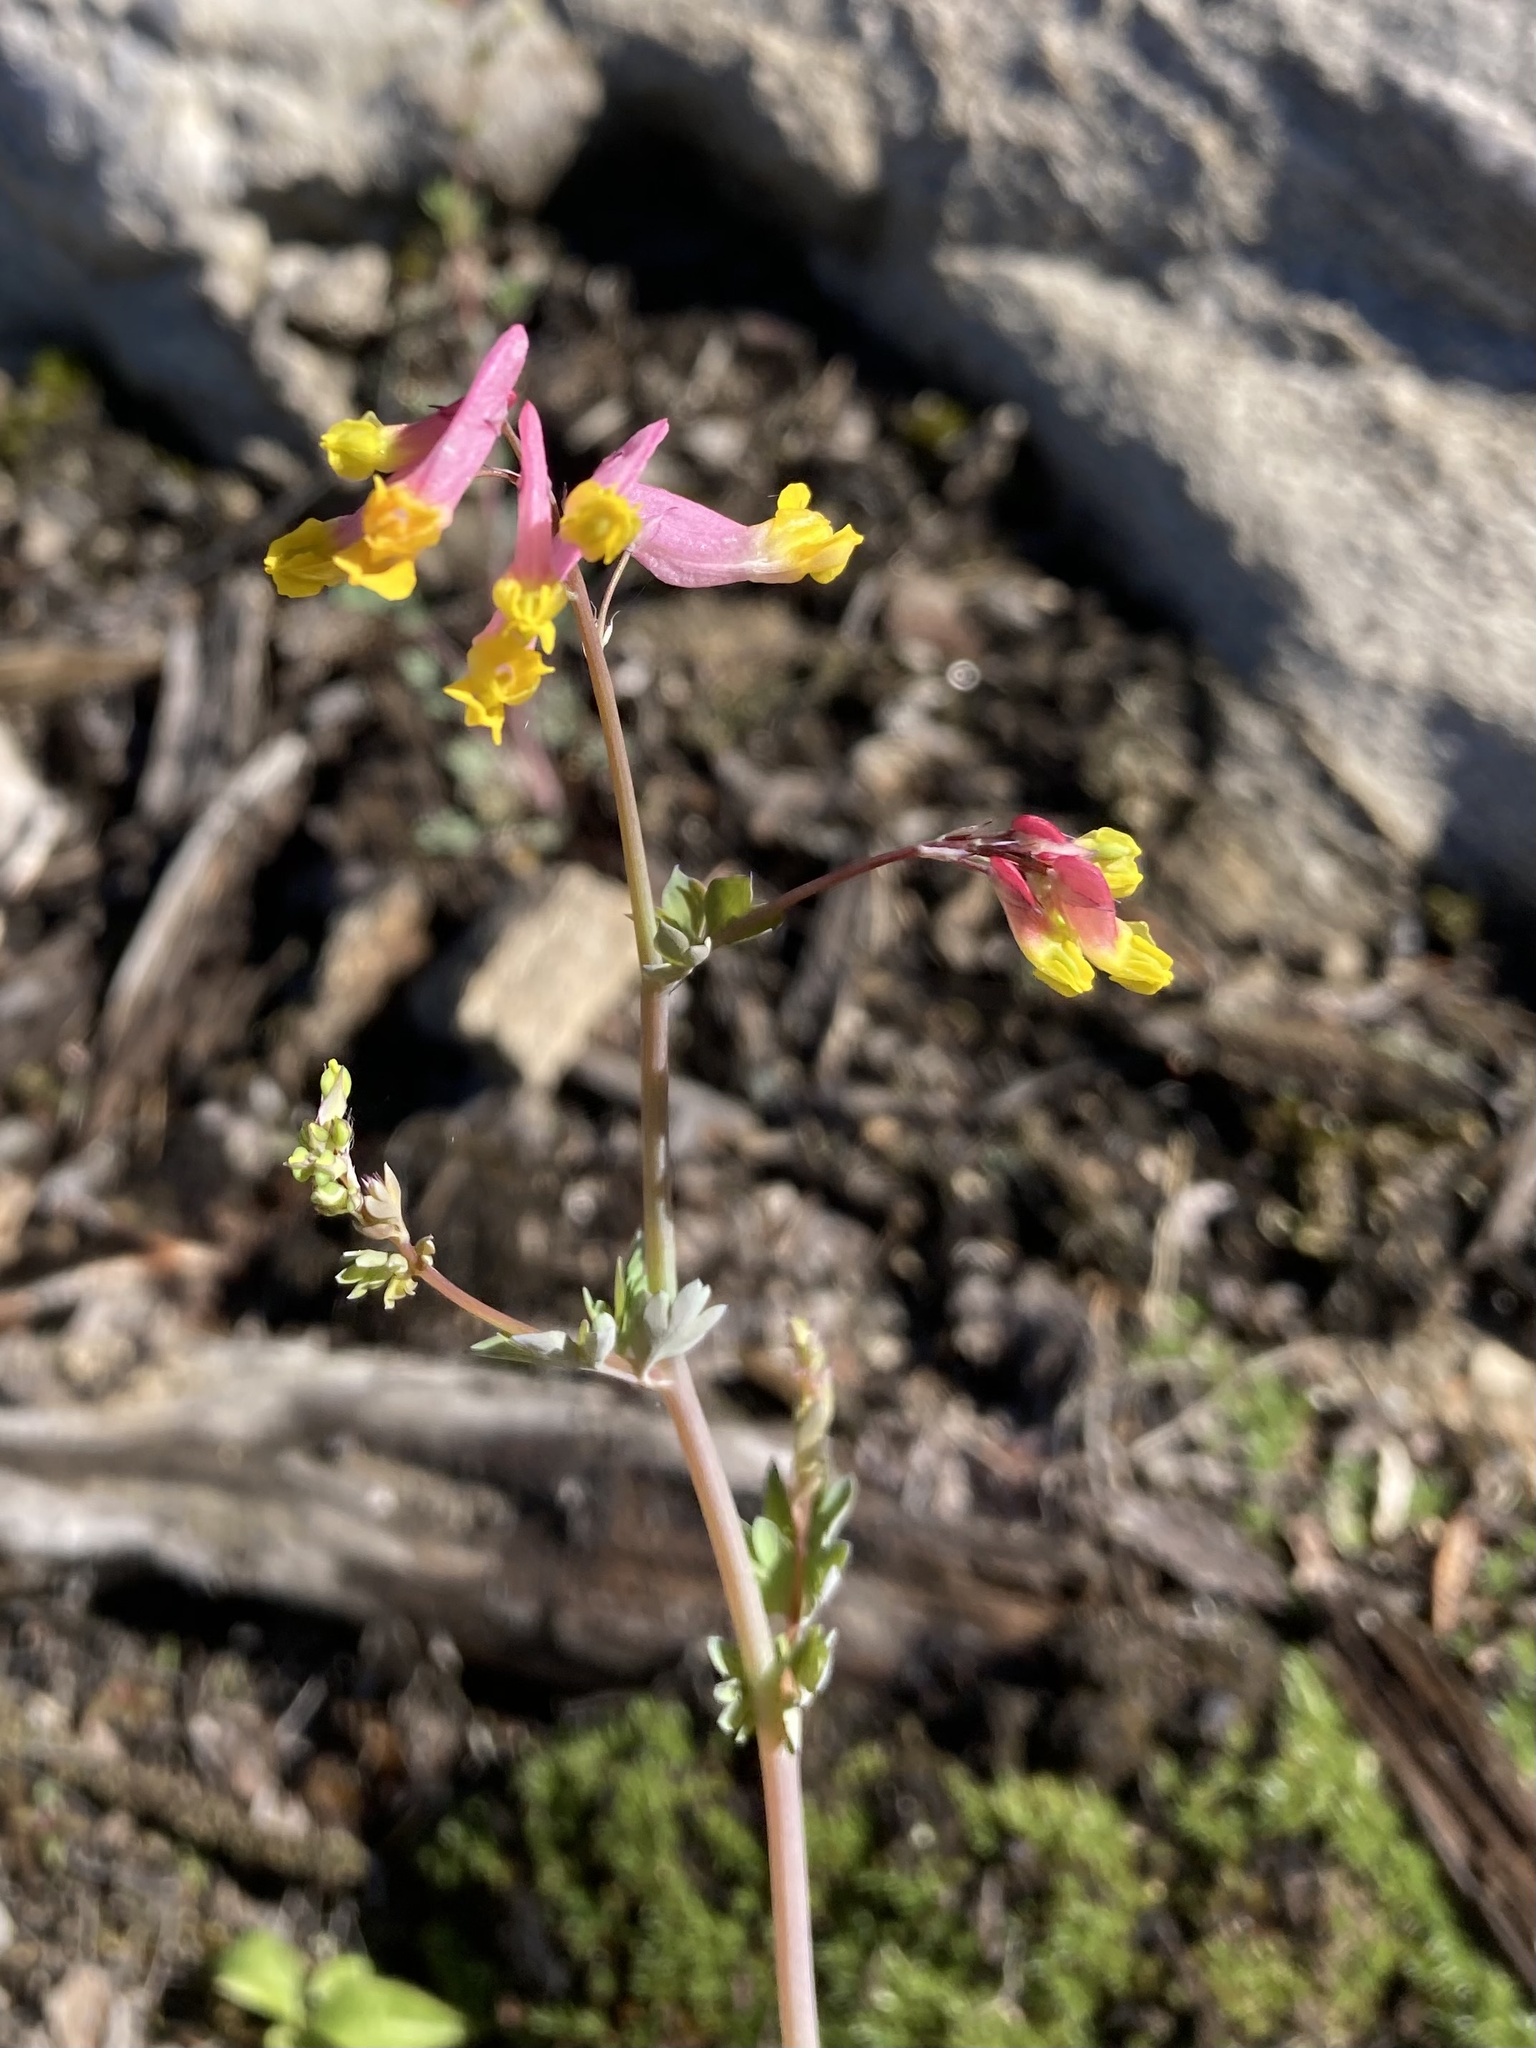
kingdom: Plantae
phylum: Tracheophyta
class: Magnoliopsida
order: Ranunculales
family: Papaveraceae
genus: Capnoides
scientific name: Capnoides sempervirens
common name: Rock harlequin
